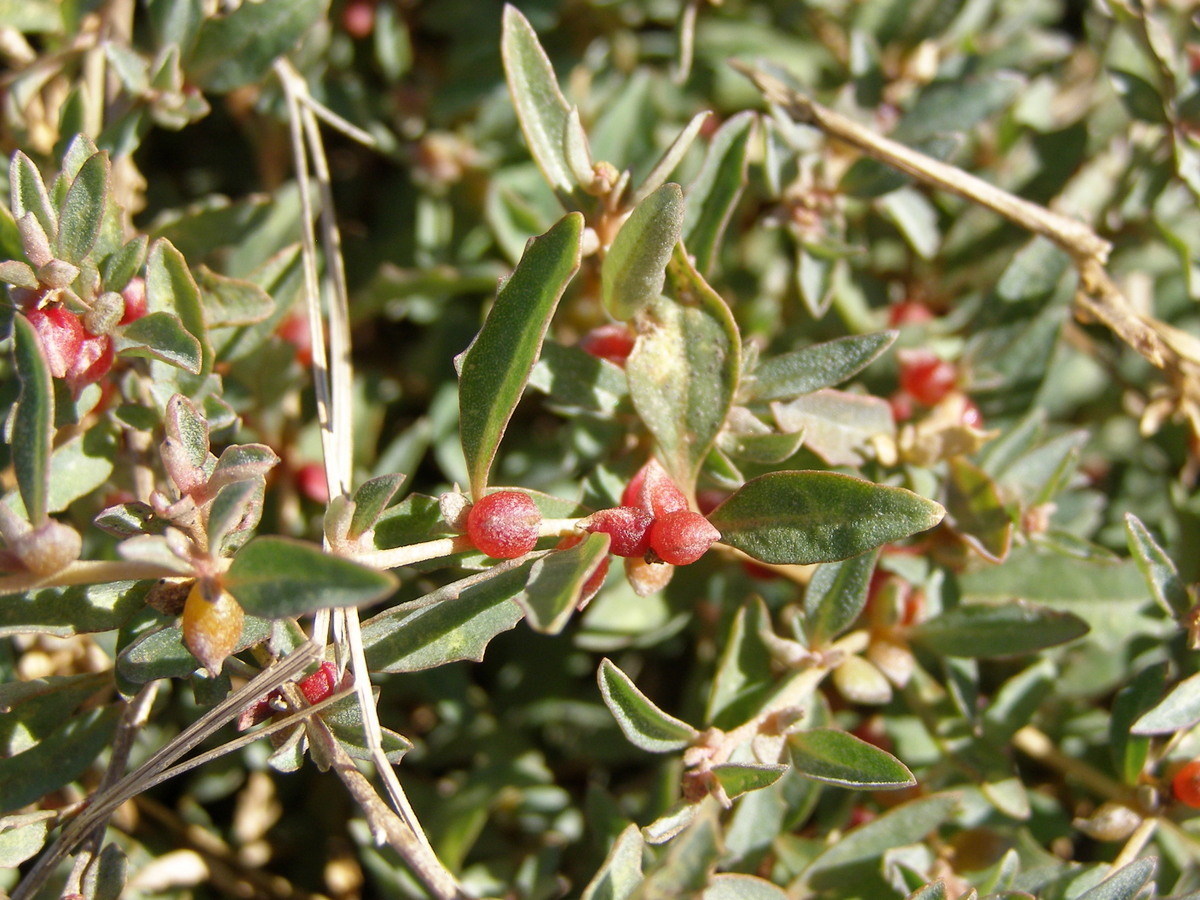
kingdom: Plantae
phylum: Tracheophyta
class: Magnoliopsida
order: Caryophyllales
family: Amaranthaceae
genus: Atriplex
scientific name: Atriplex semibaccata
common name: Australian saltbush
